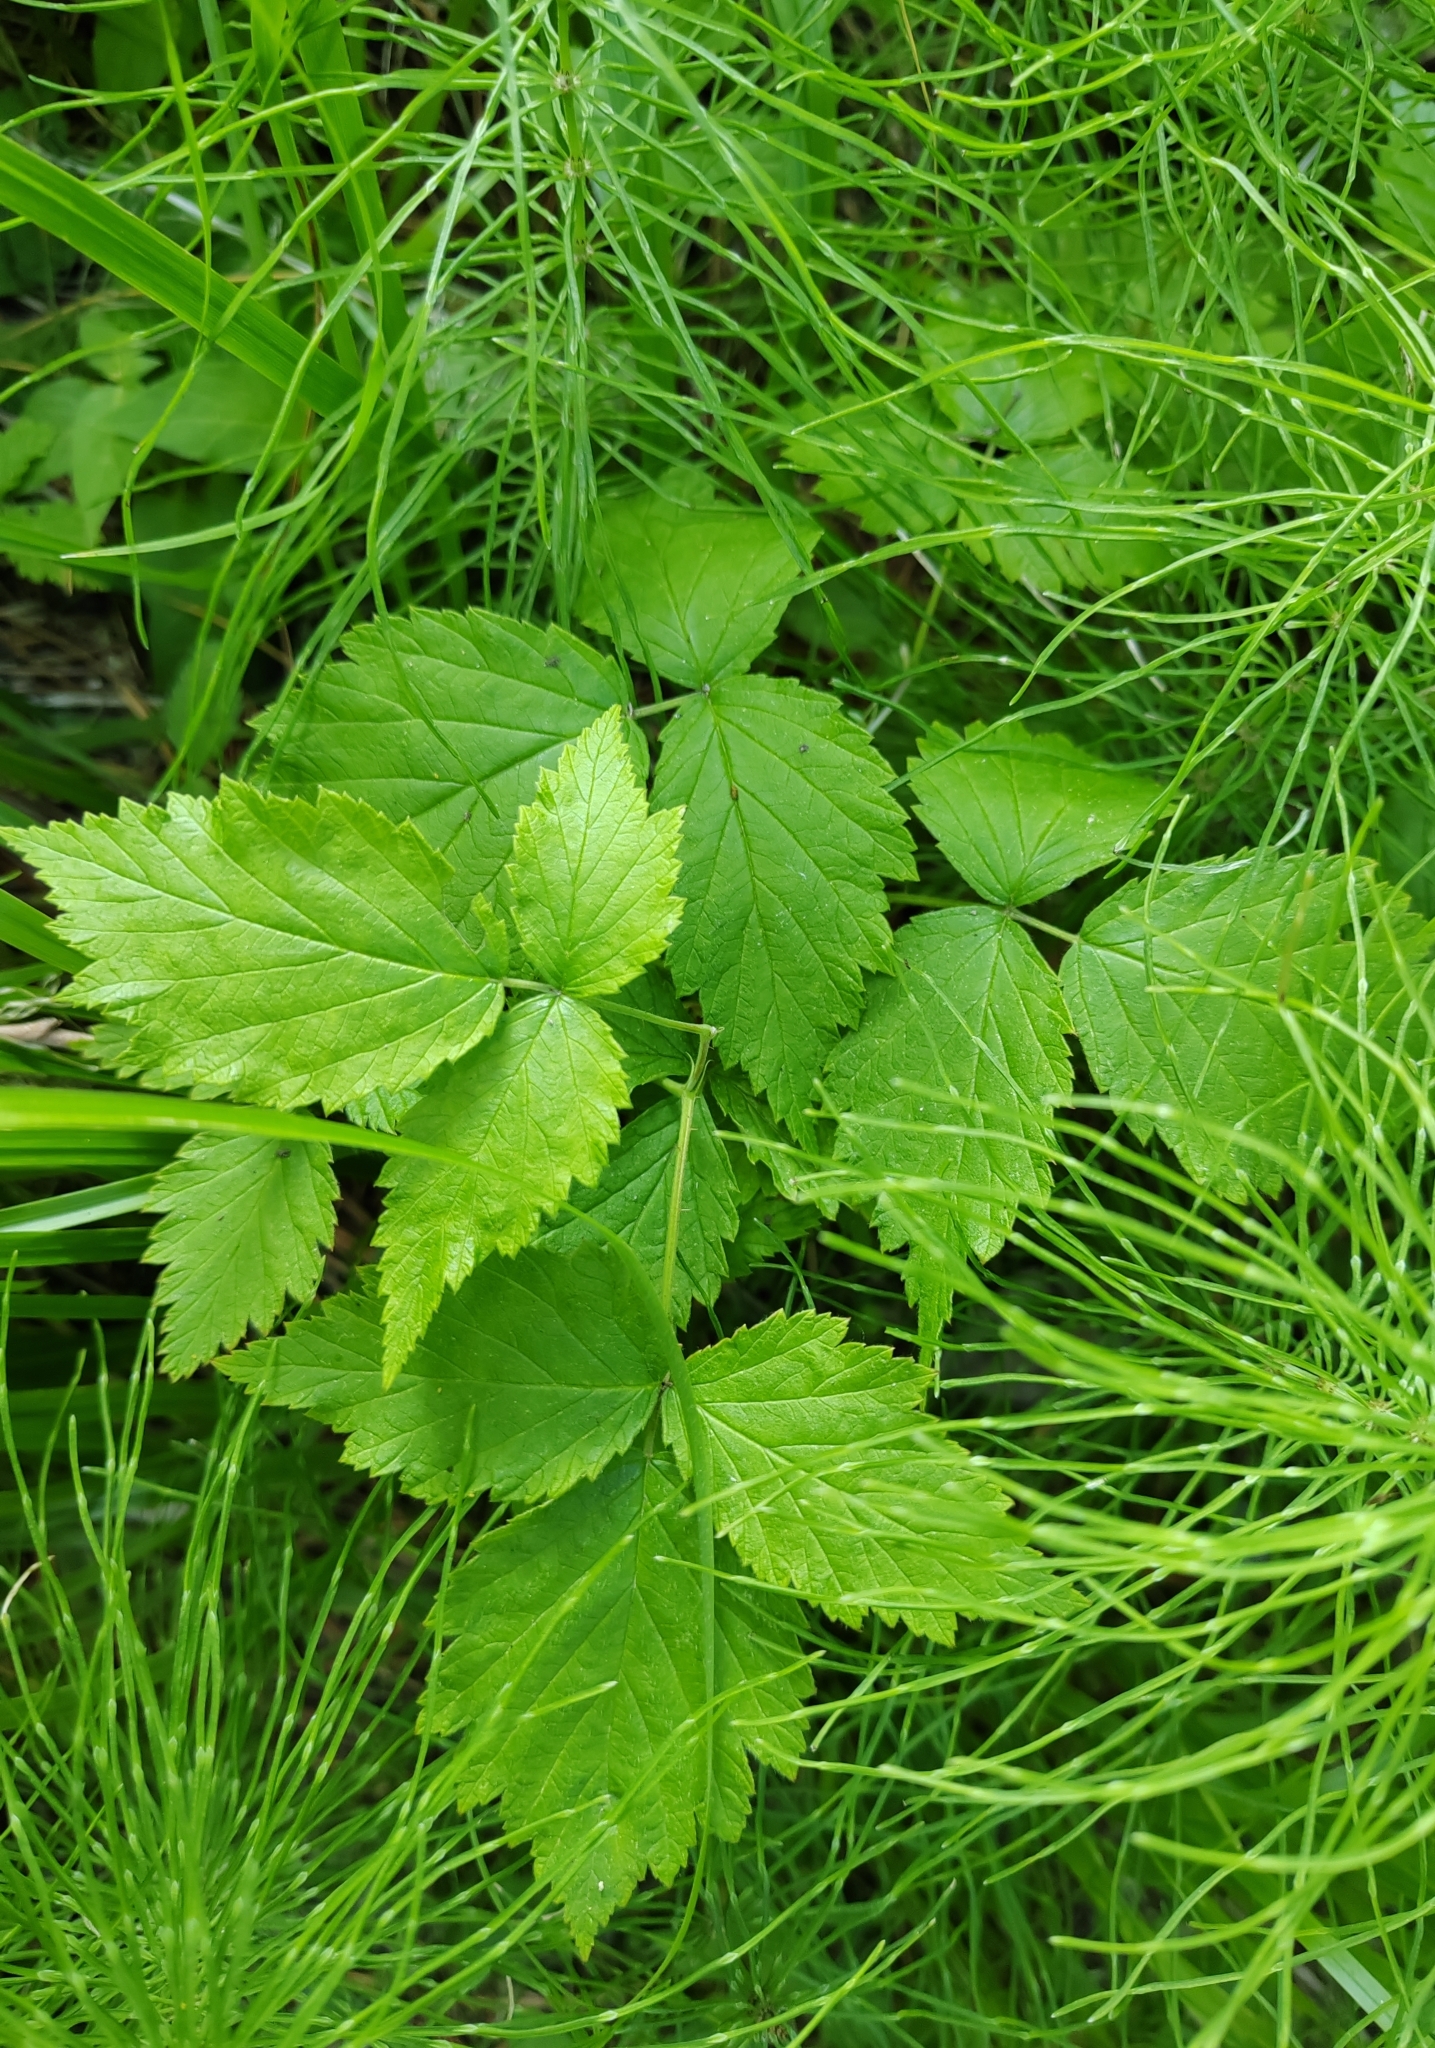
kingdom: Plantae
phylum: Tracheophyta
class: Magnoliopsida
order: Rosales
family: Rosaceae
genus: Rubus
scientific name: Rubus idaeus
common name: Raspberry
